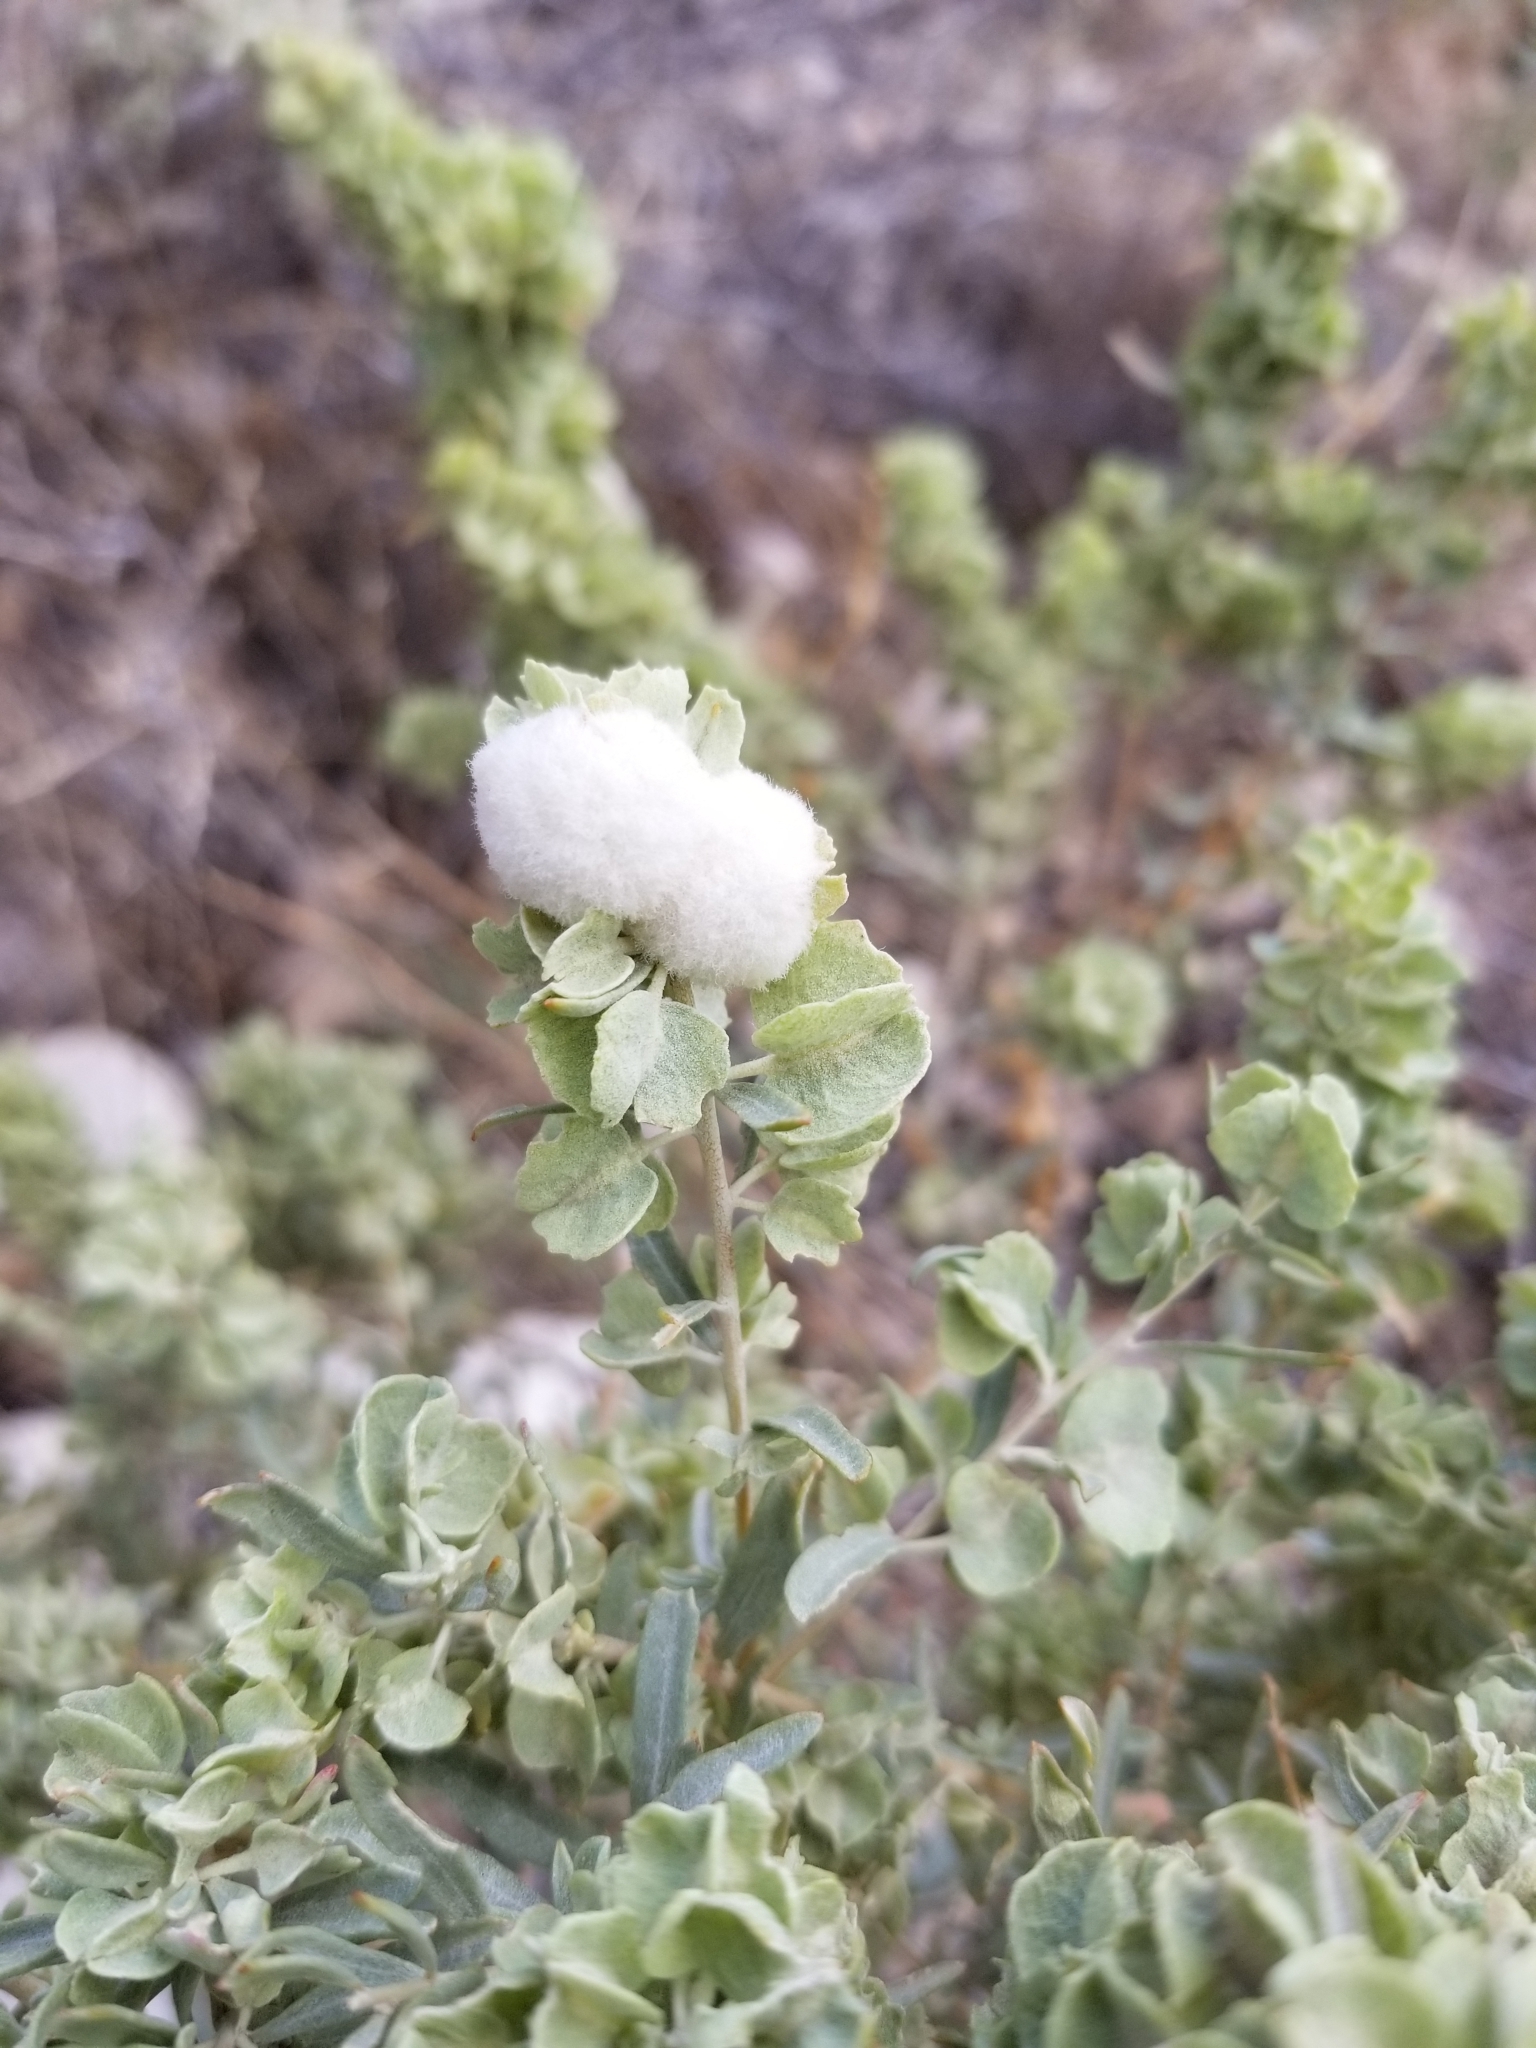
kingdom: Plantae
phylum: Tracheophyta
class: Magnoliopsida
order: Caryophyllales
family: Amaranthaceae
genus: Atriplex
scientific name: Atriplex canescens
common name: Four-wing saltbush
